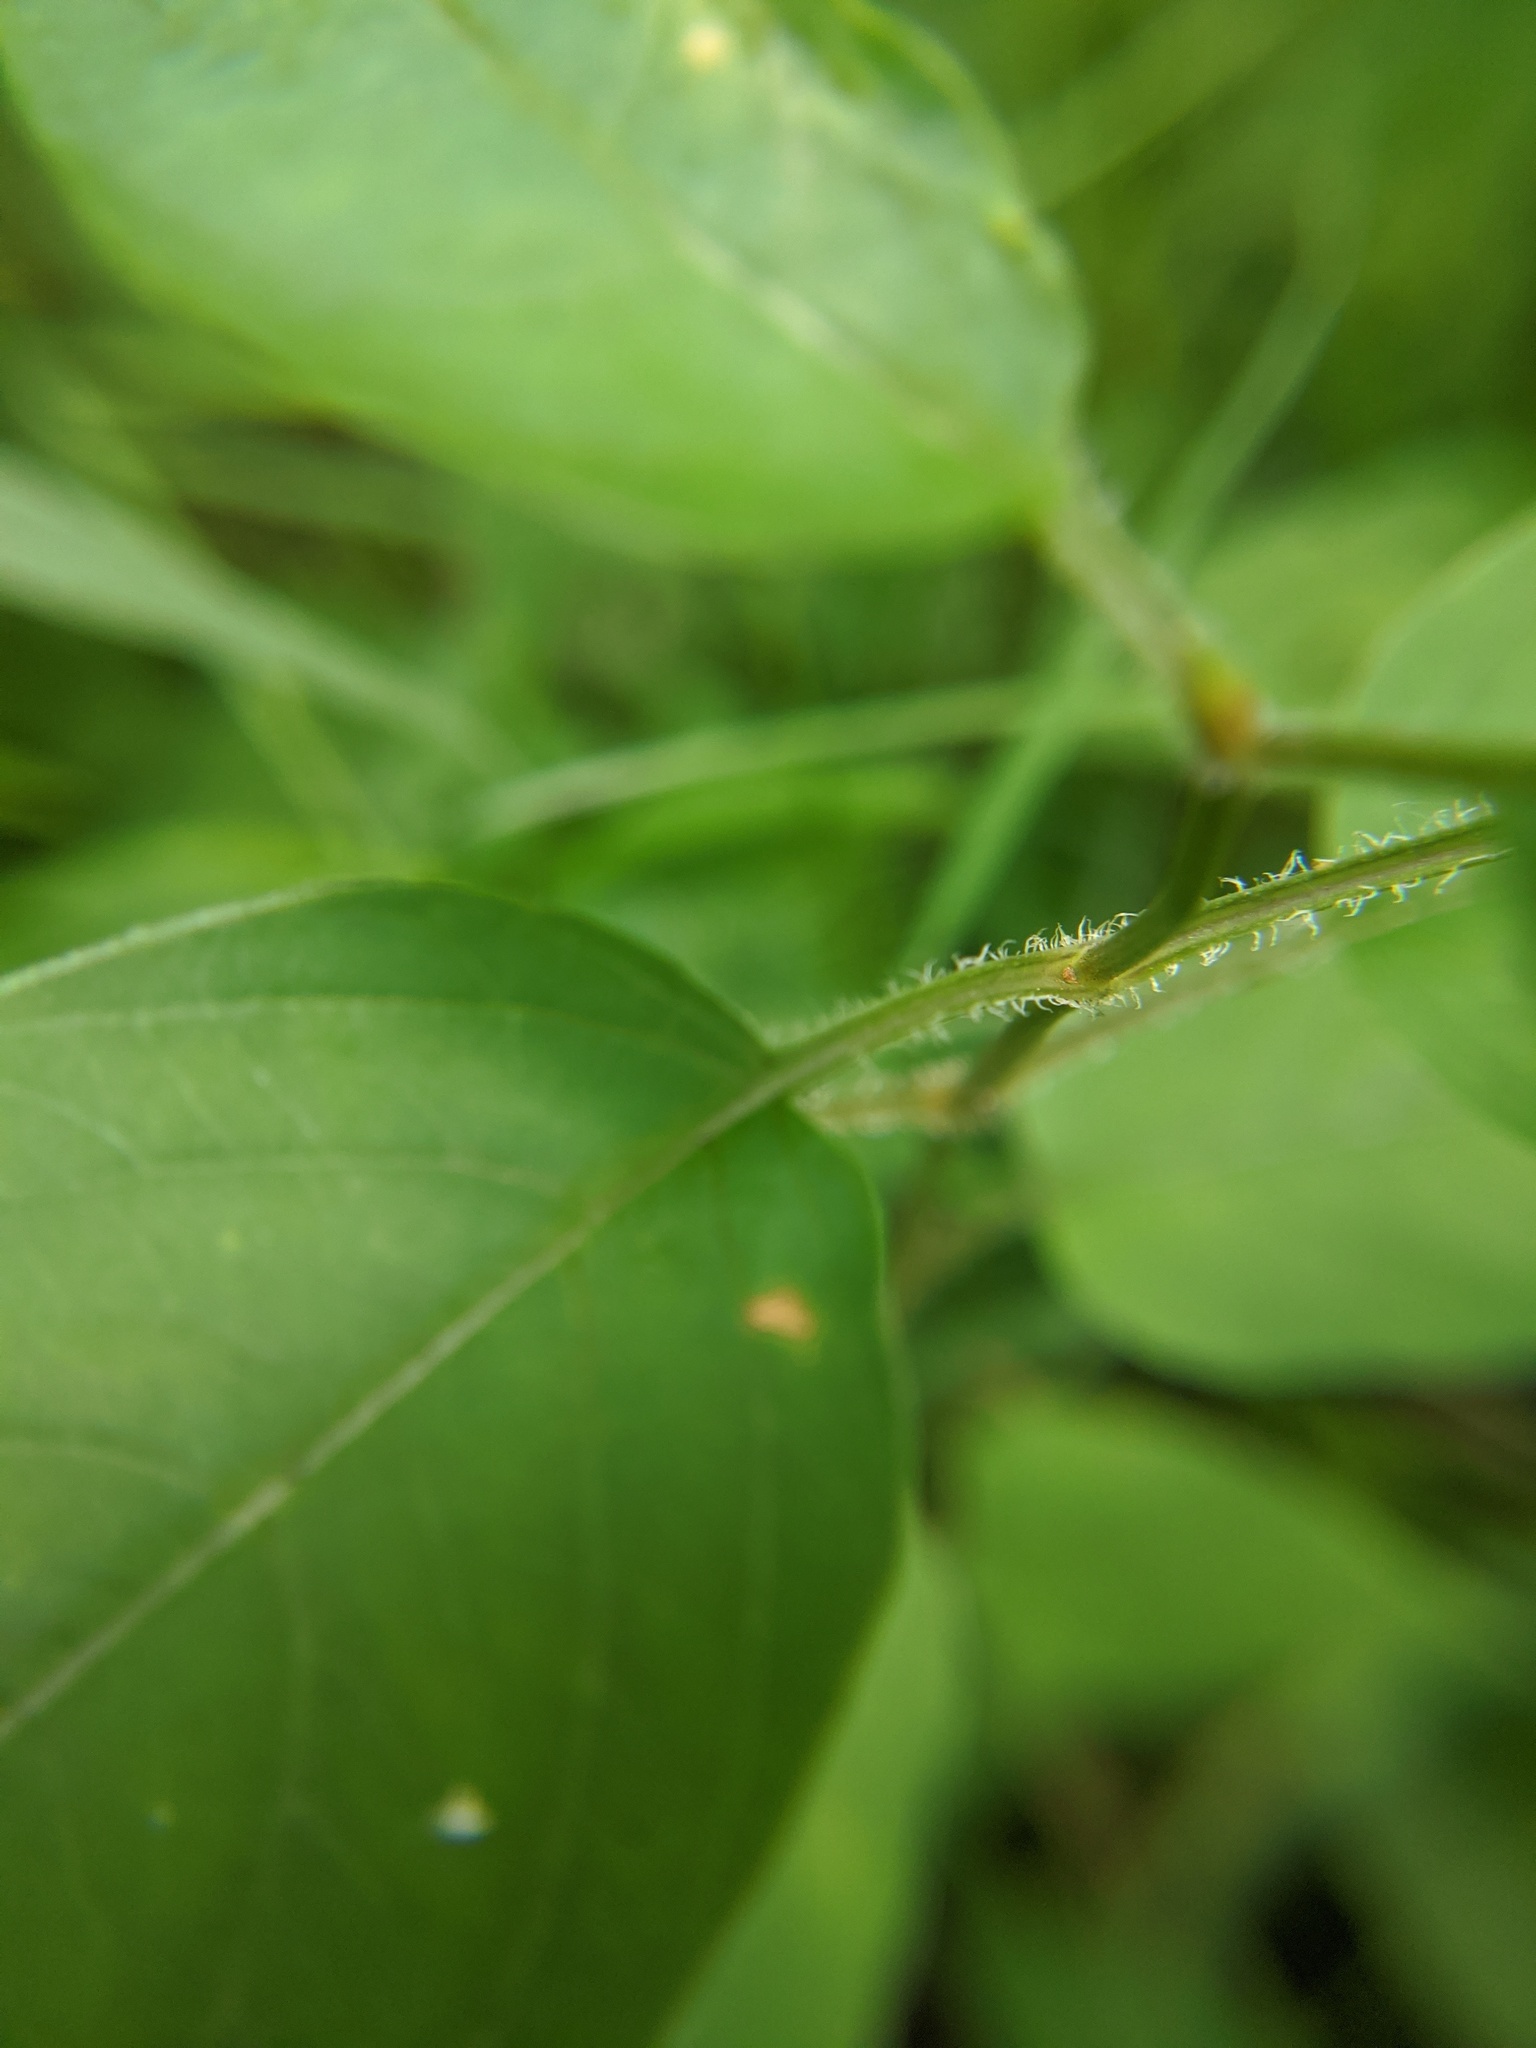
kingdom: Plantae
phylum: Tracheophyta
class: Magnoliopsida
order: Ericales
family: Primulaceae
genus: Lysimachia
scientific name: Lysimachia ciliata
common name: Fringed loosestrife
